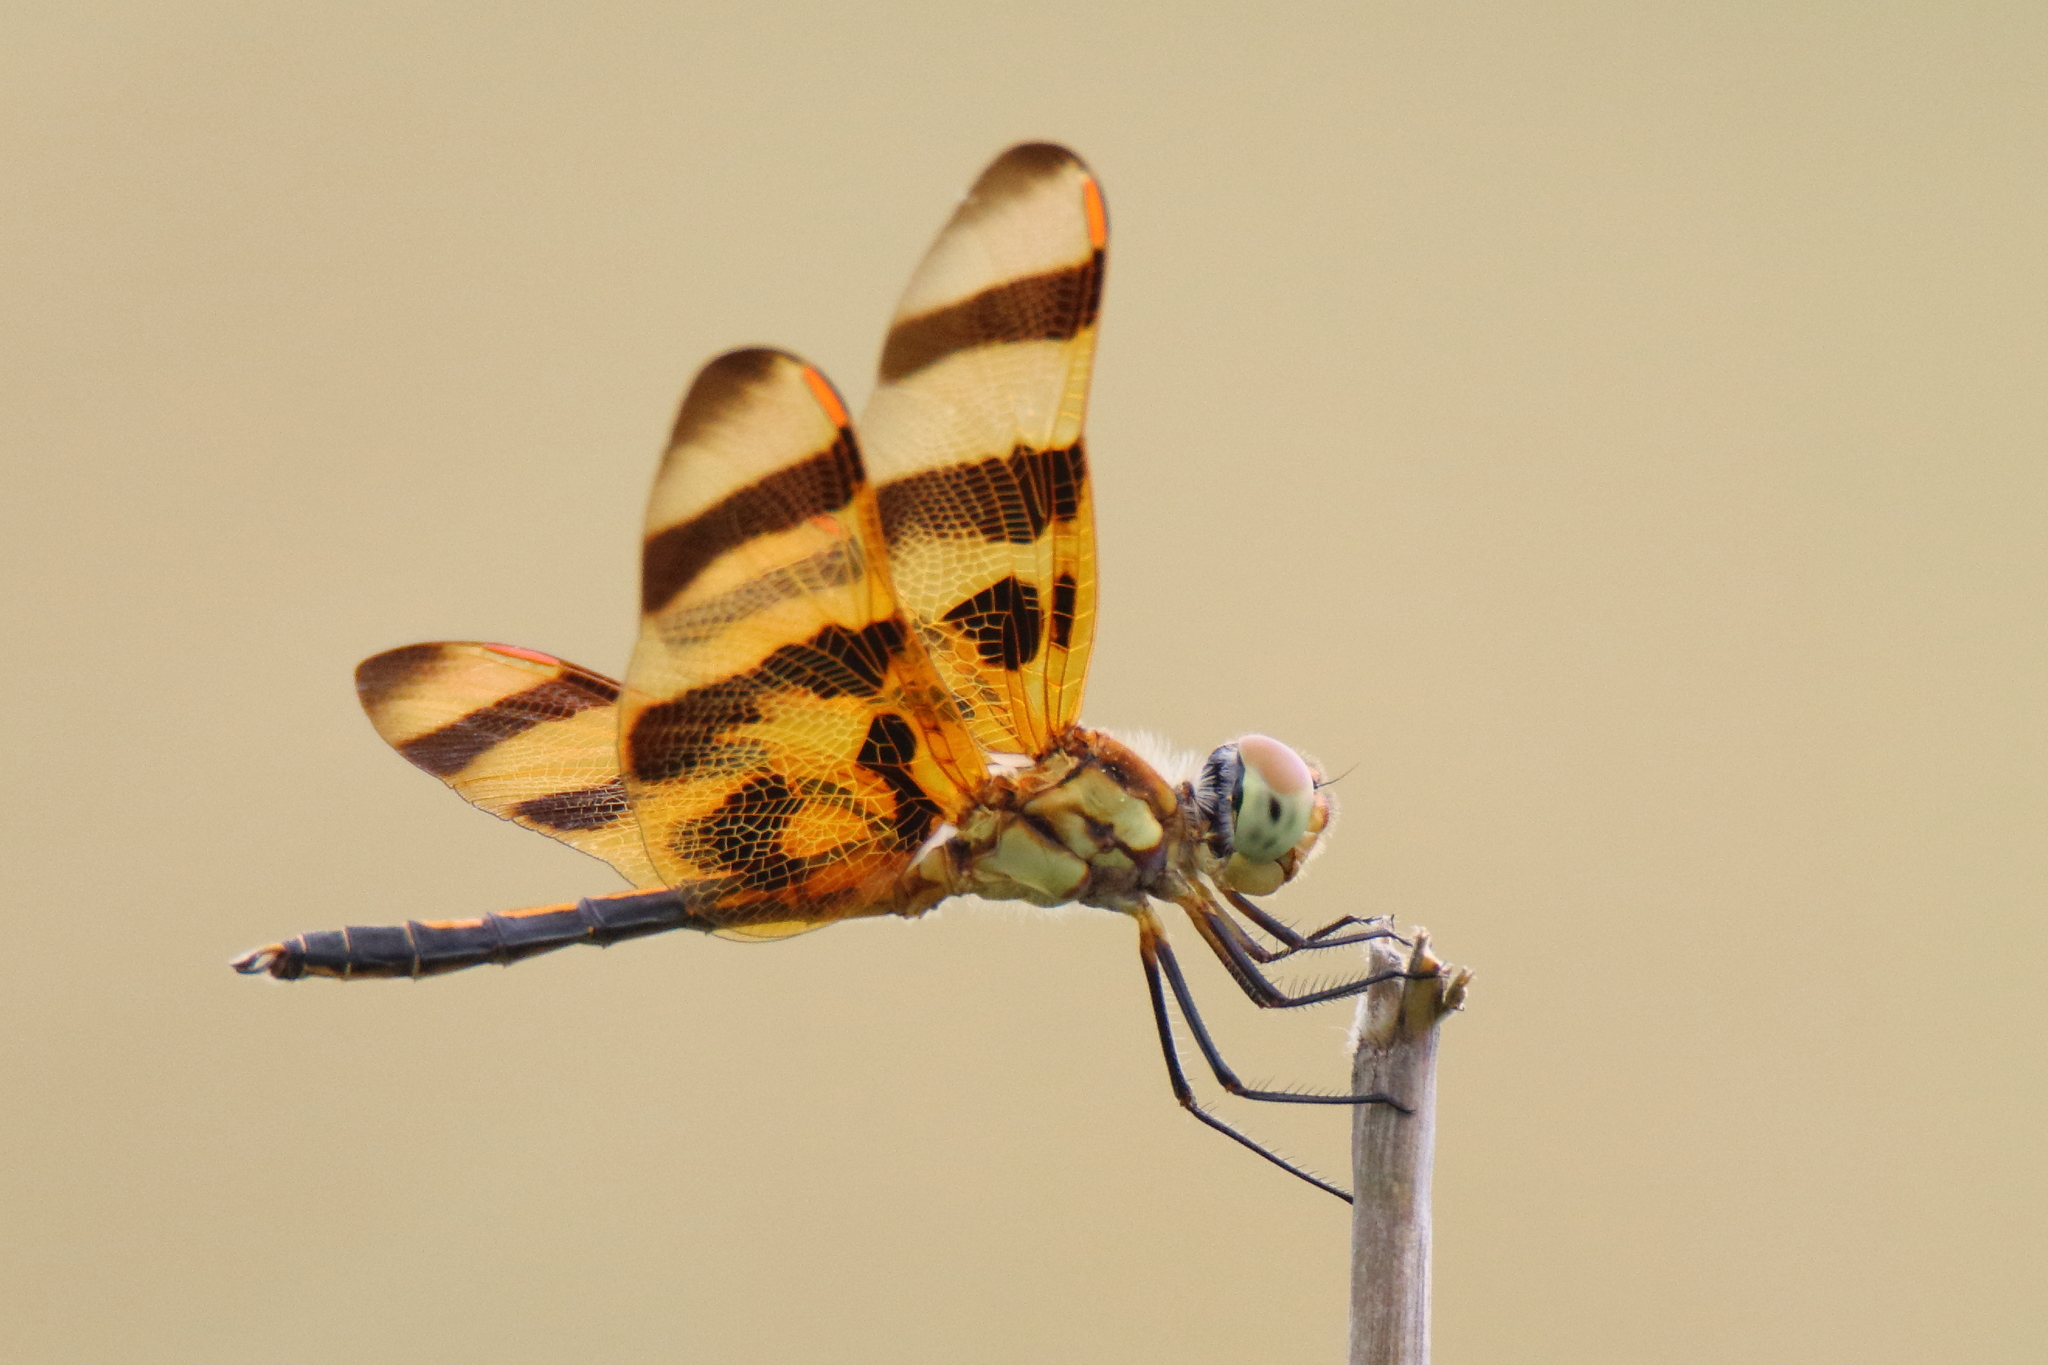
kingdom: Animalia
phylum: Arthropoda
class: Insecta
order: Odonata
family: Libellulidae
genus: Celithemis
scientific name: Celithemis eponina
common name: Halloween pennant
